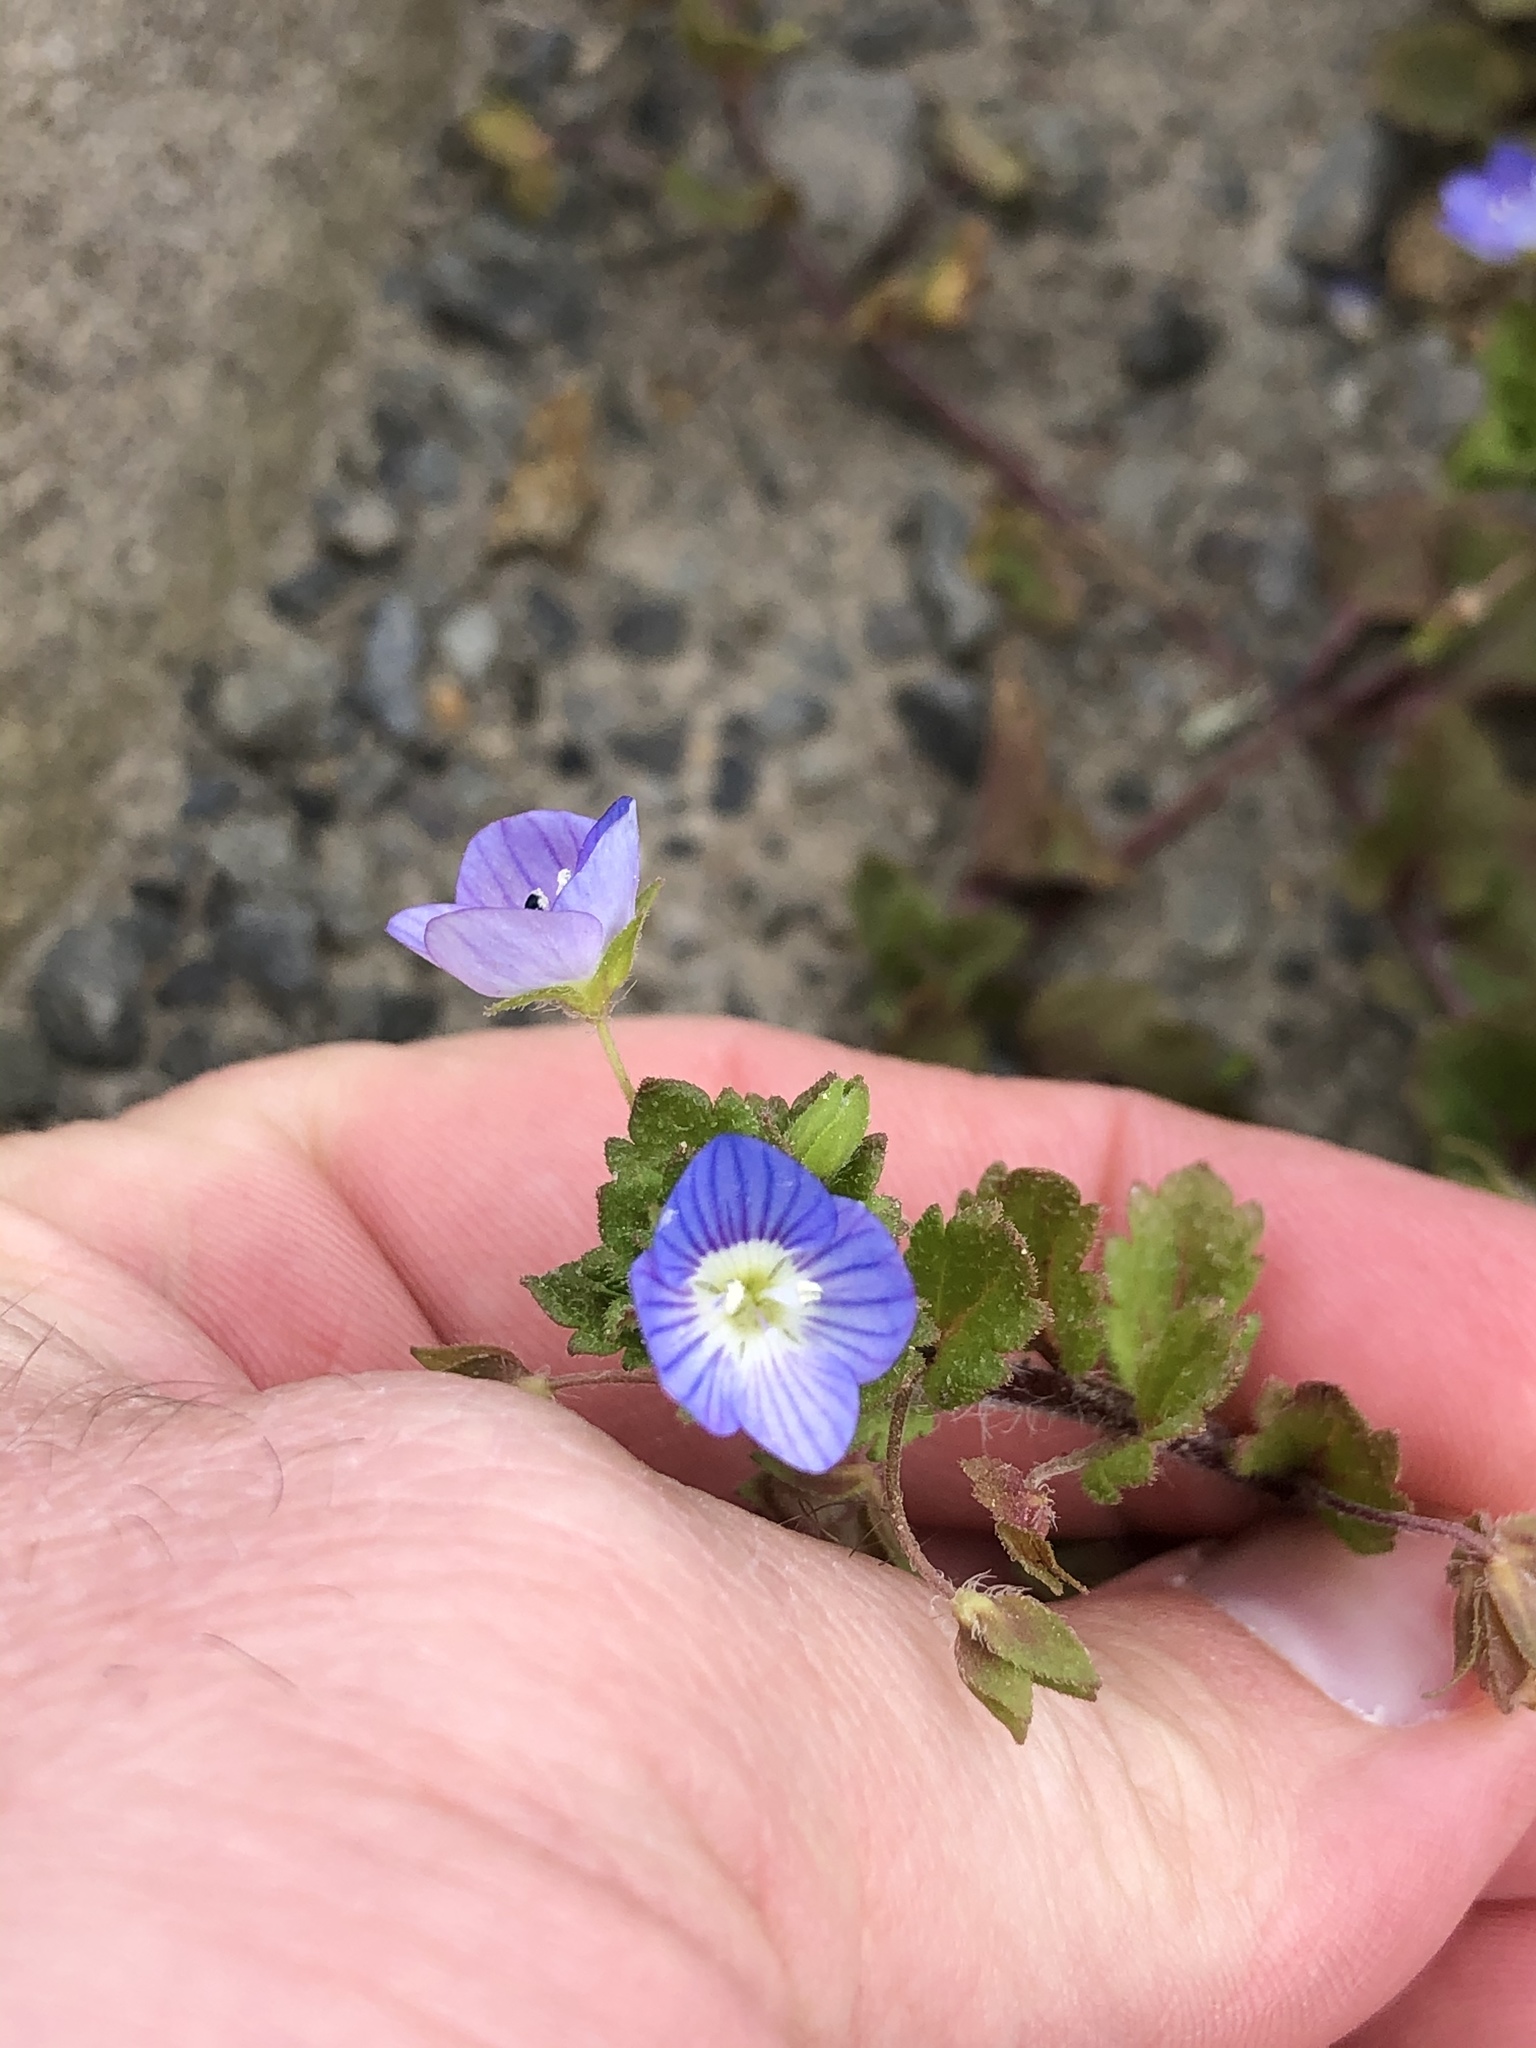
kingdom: Plantae
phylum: Tracheophyta
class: Magnoliopsida
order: Lamiales
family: Plantaginaceae
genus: Veronica
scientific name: Veronica persica
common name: Common field-speedwell
